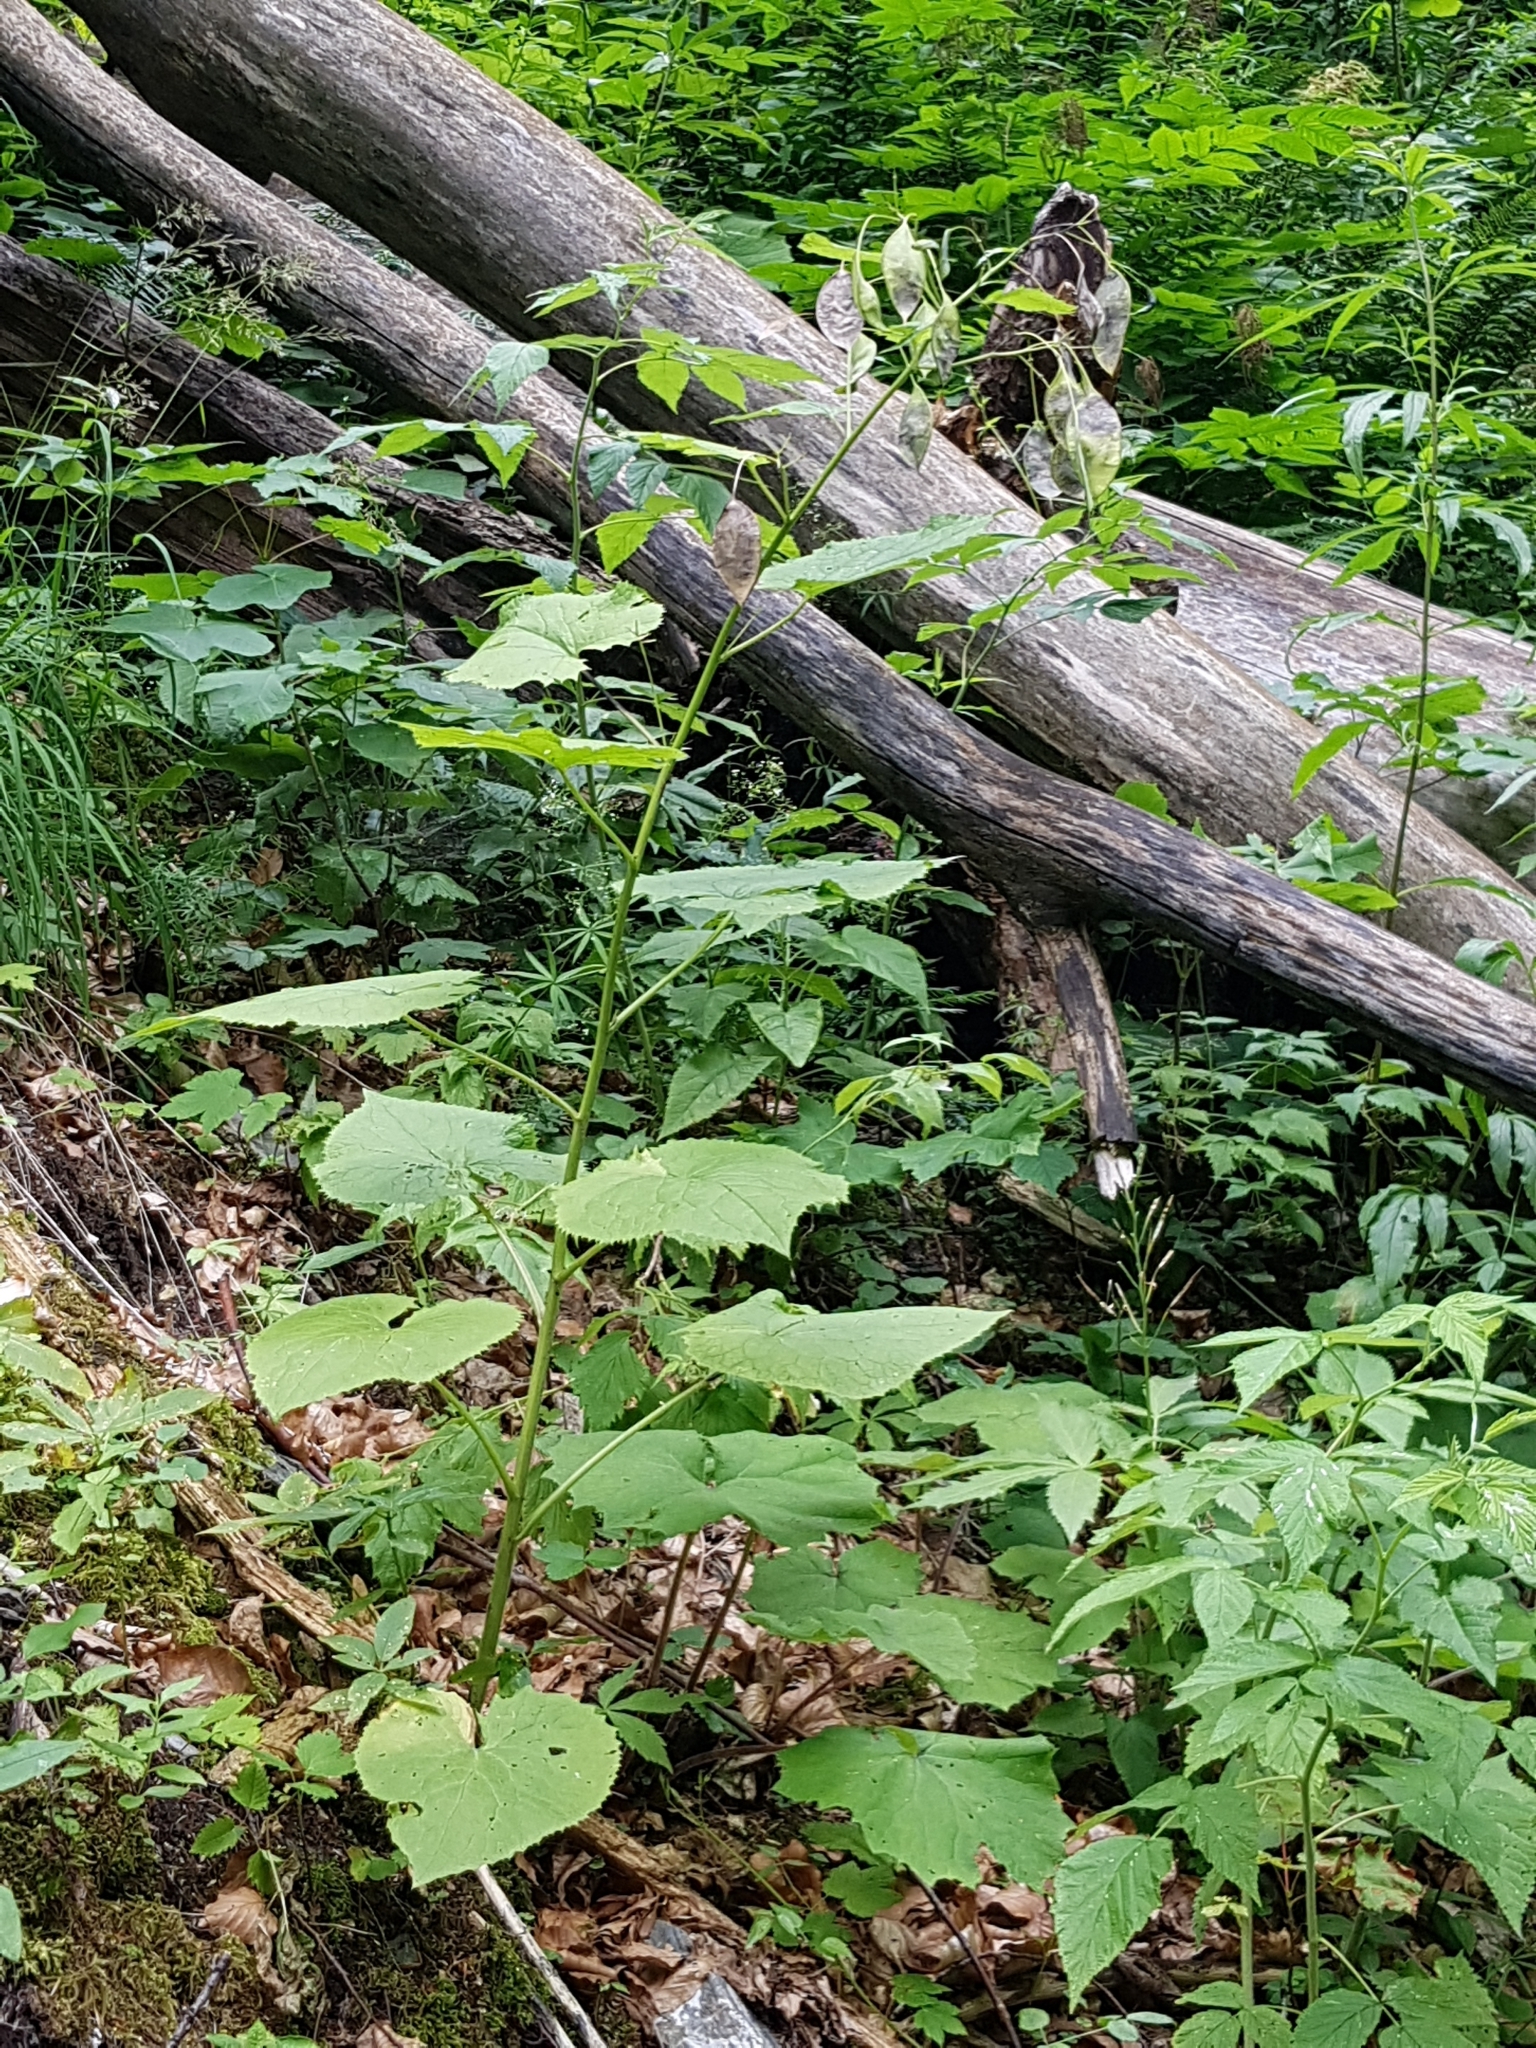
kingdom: Plantae
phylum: Tracheophyta
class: Magnoliopsida
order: Brassicales
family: Brassicaceae
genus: Lunaria
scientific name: Lunaria rediviva
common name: Perennial honesty
